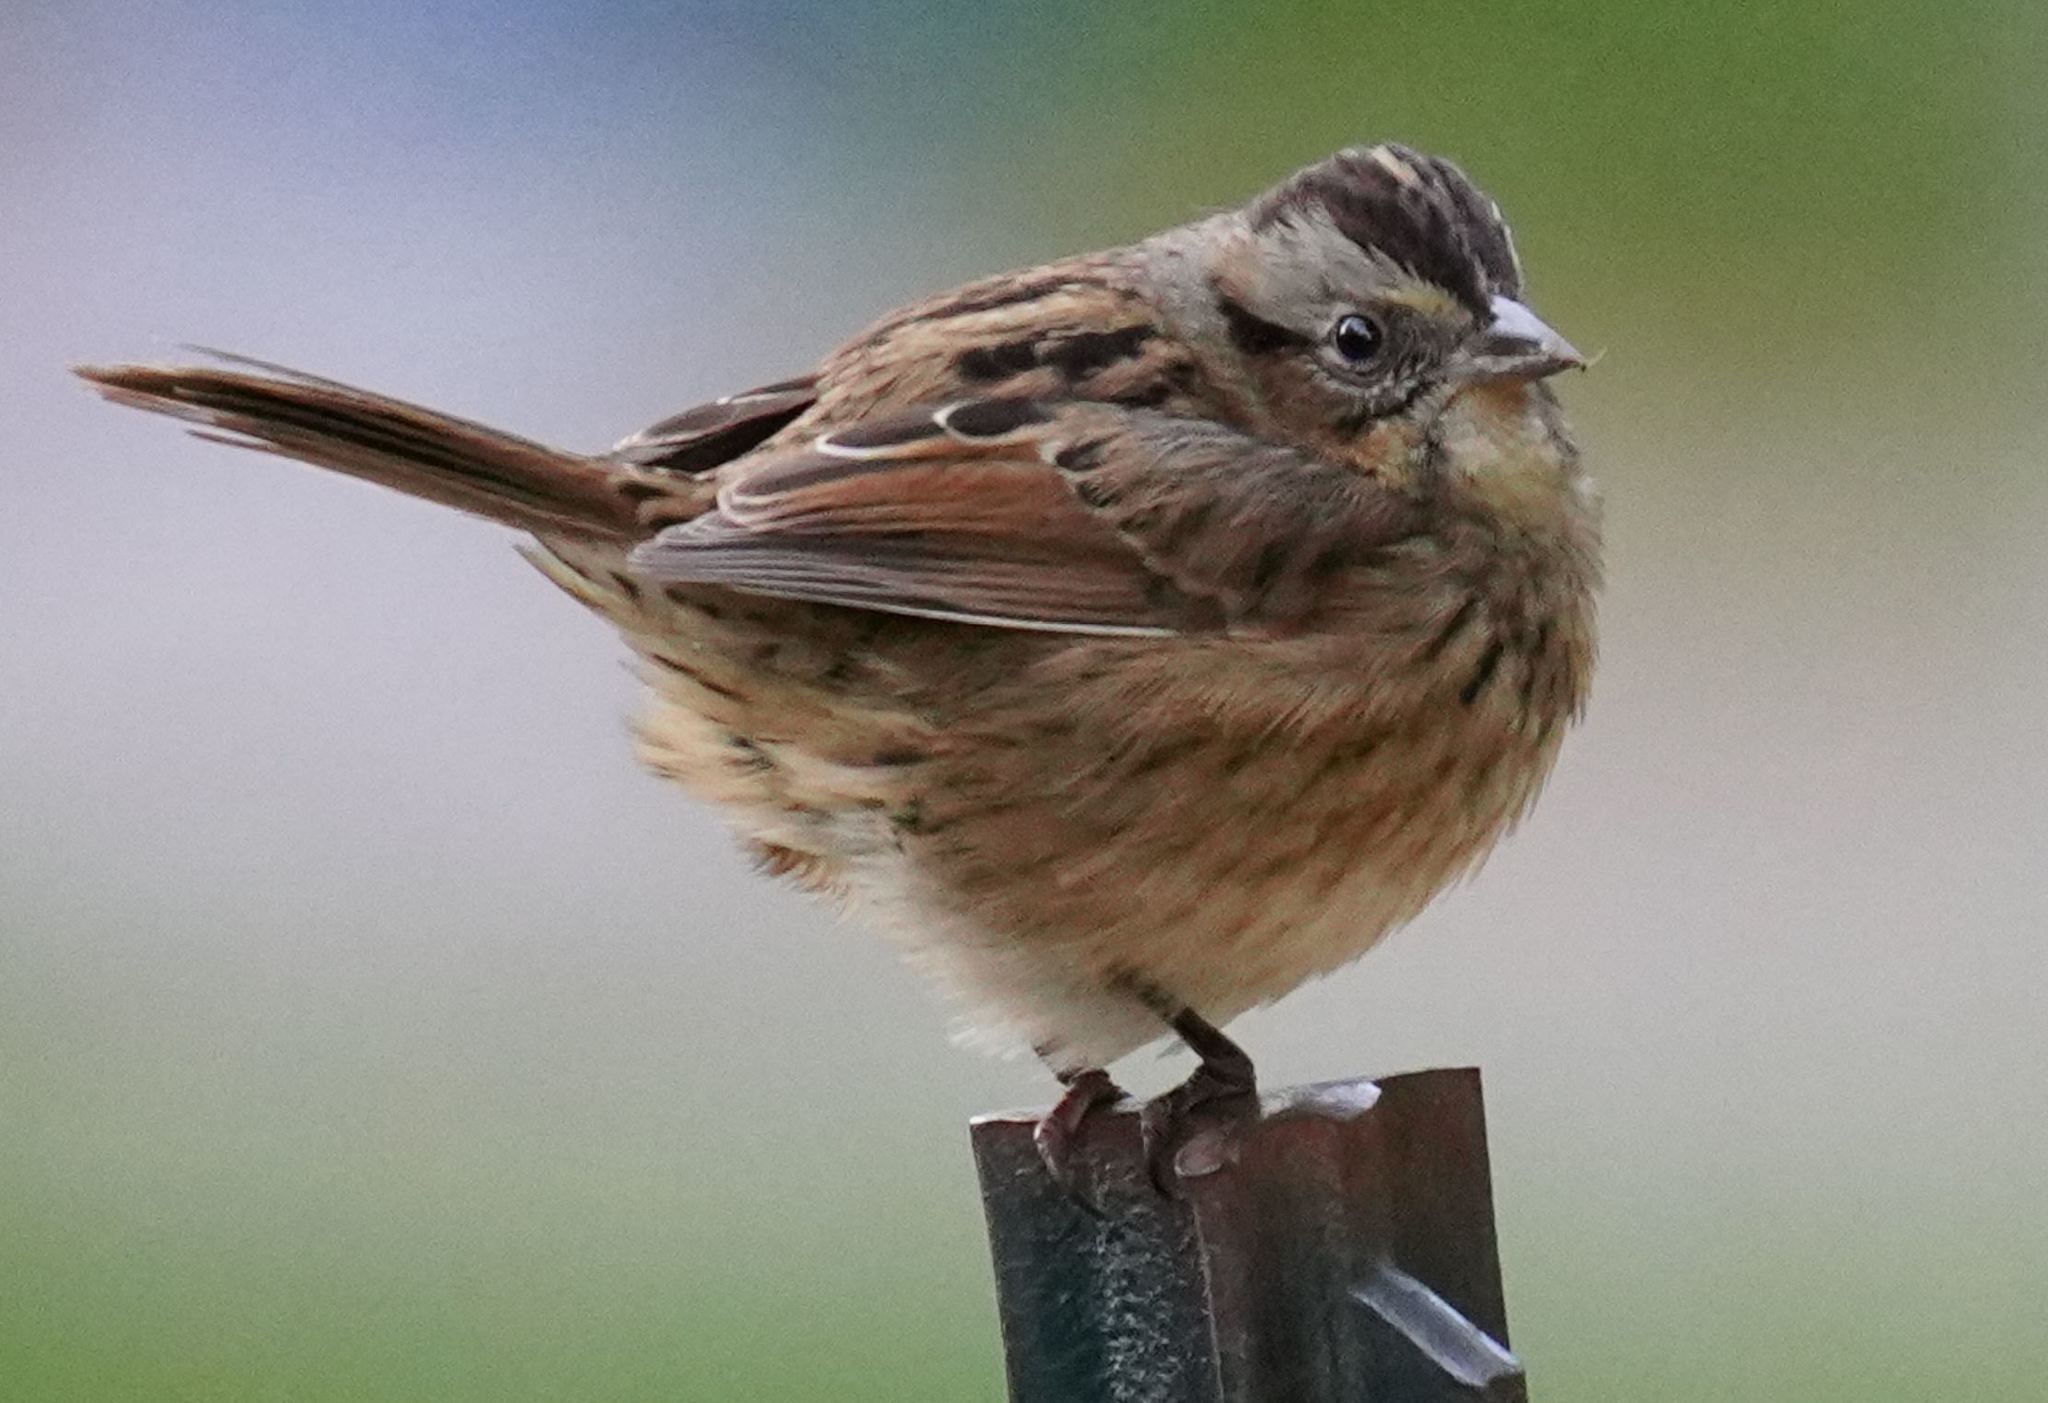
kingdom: Animalia
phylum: Chordata
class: Aves
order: Passeriformes
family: Passerellidae
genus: Melospiza
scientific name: Melospiza georgiana
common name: Swamp sparrow
